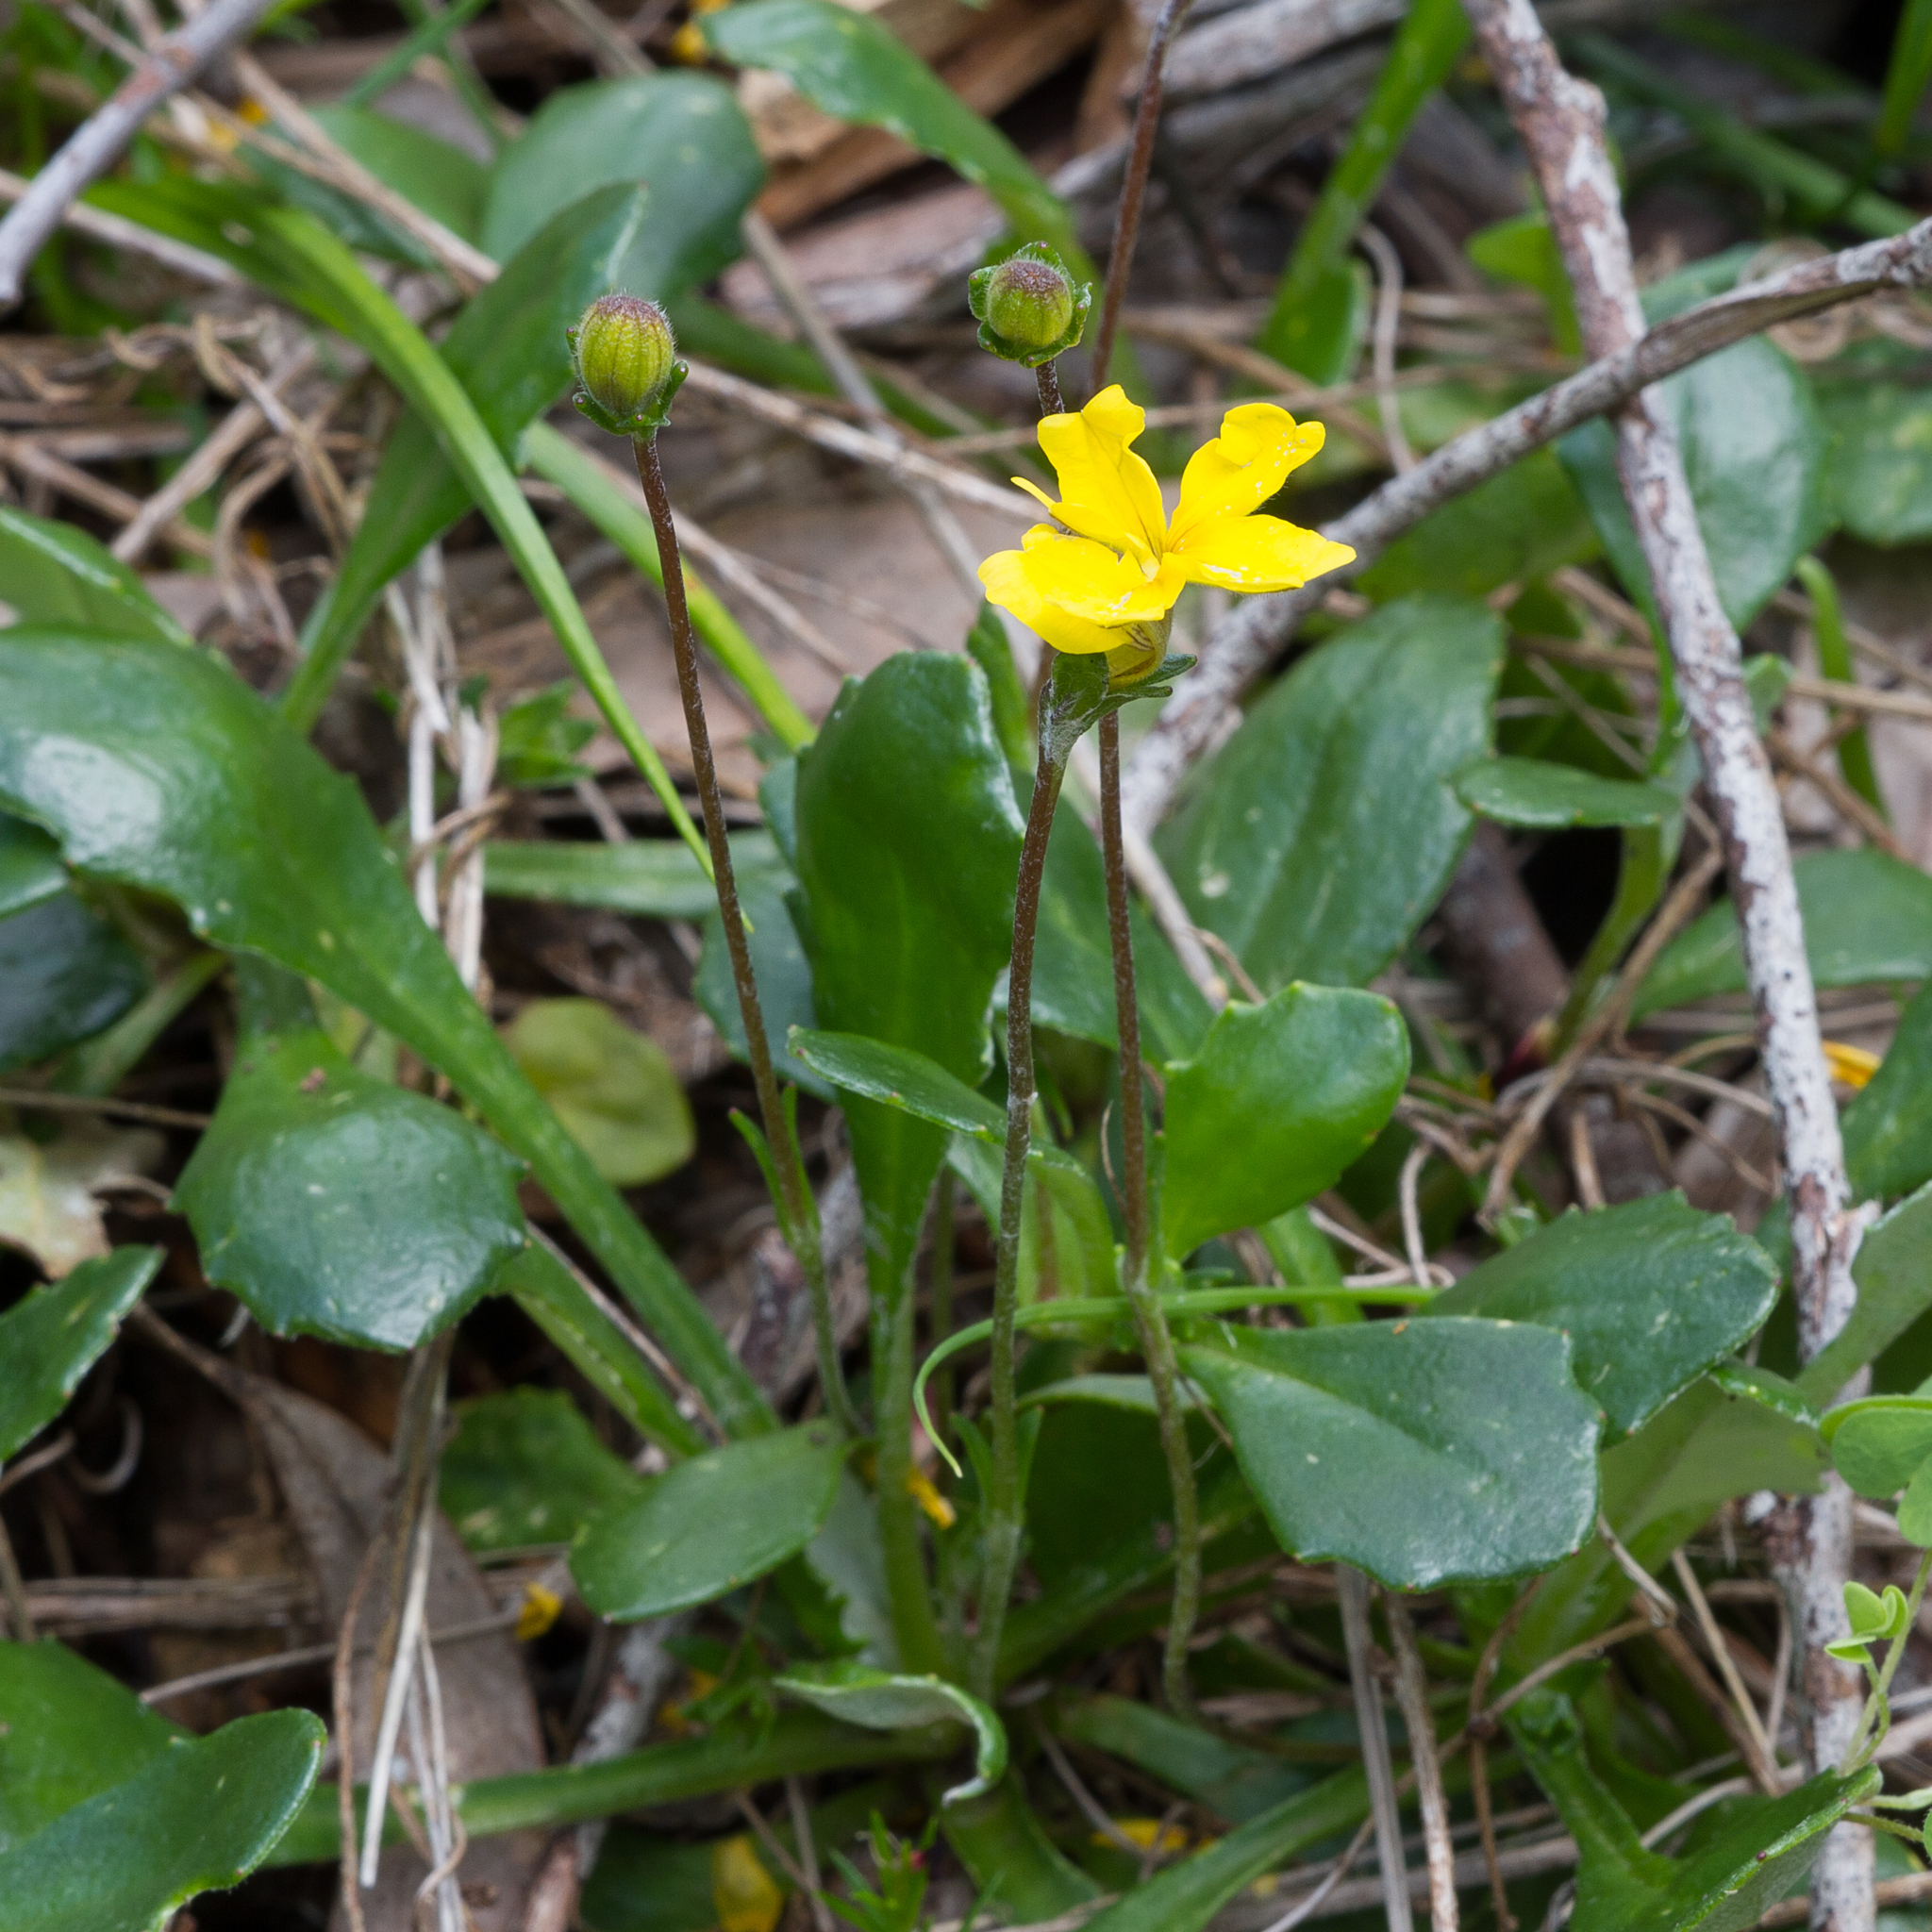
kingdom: Plantae
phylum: Tracheophyta
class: Magnoliopsida
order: Asterales
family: Goodeniaceae
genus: Goodenia
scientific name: Goodenia blackiana
